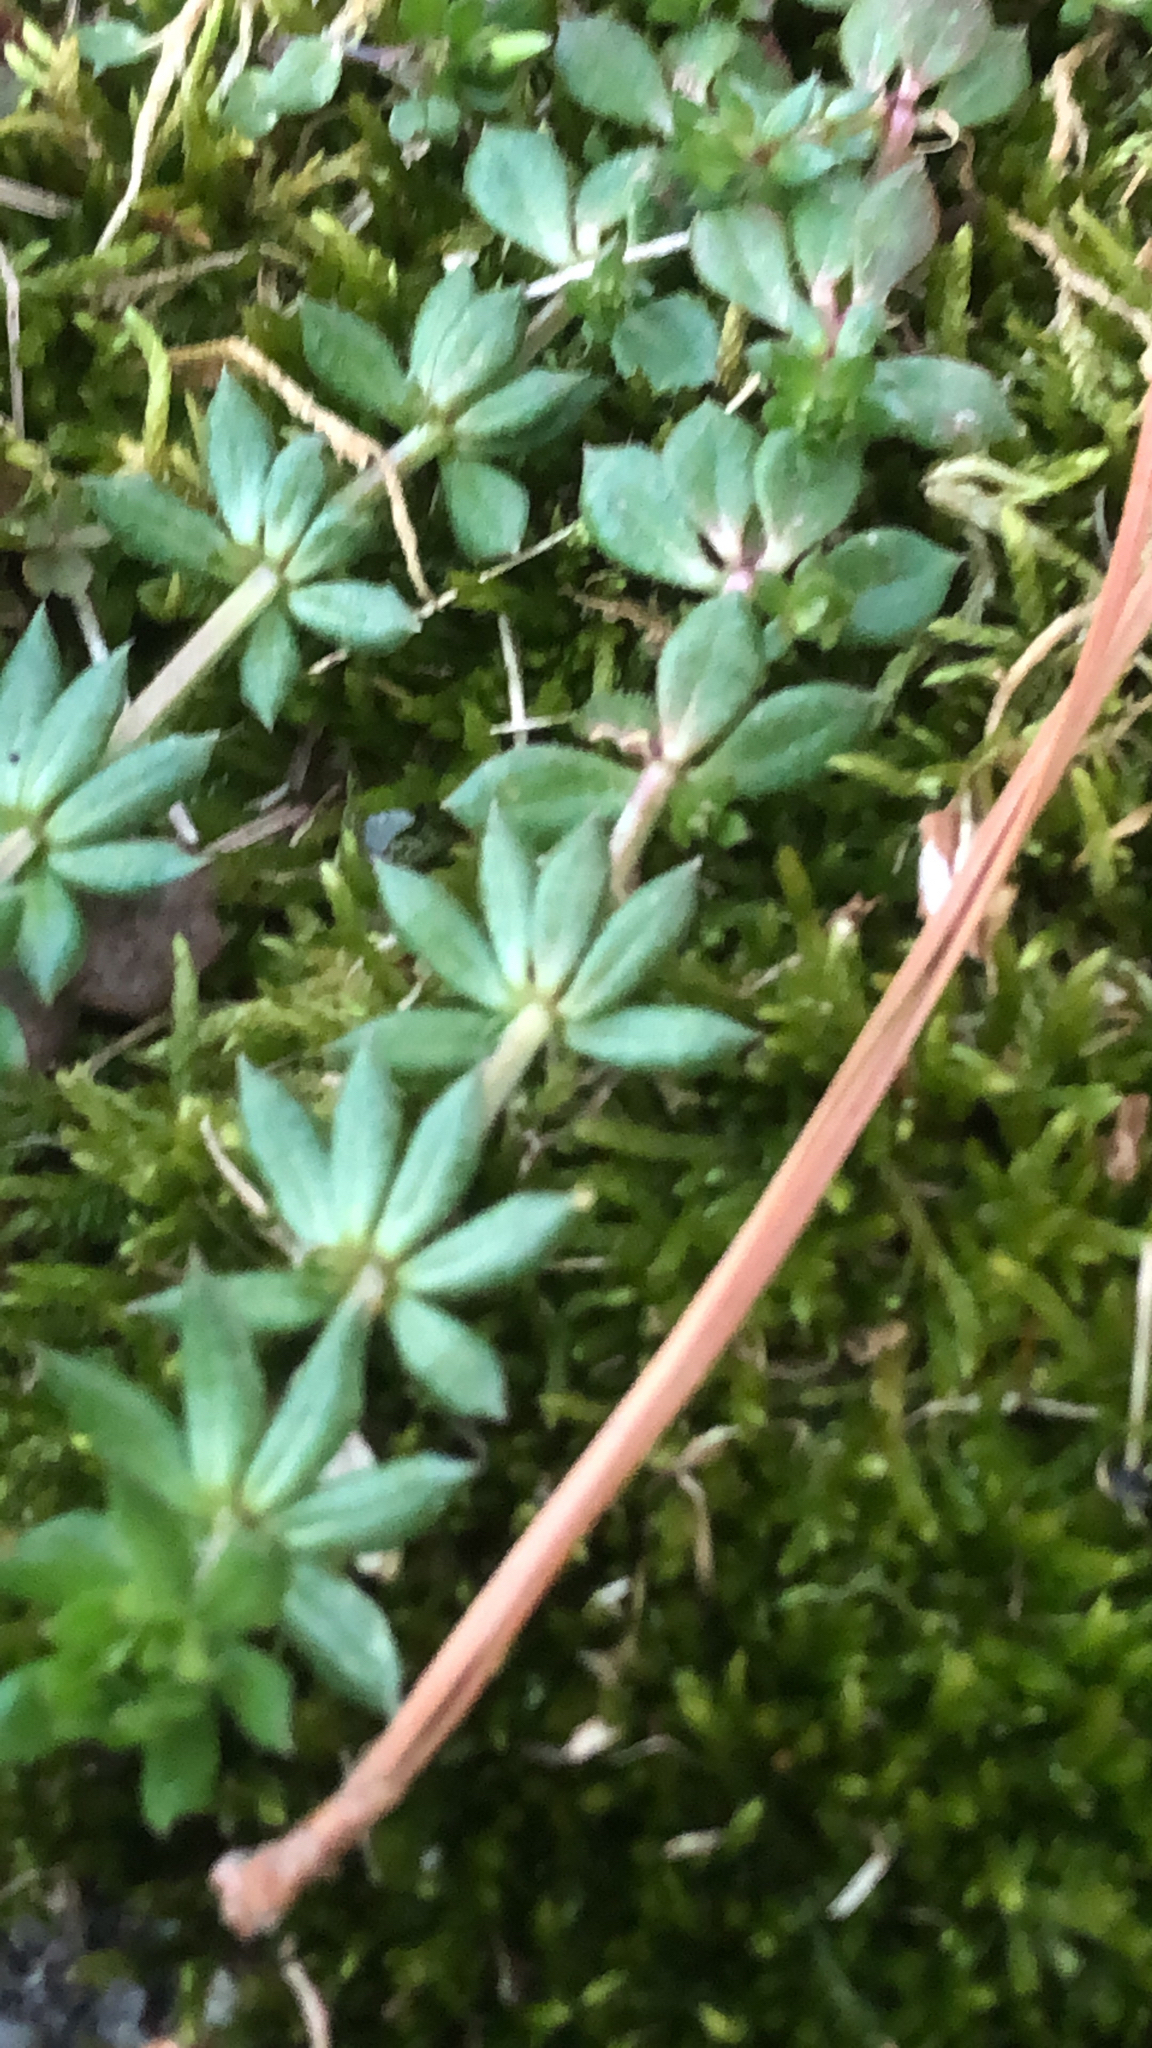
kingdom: Plantae
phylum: Tracheophyta
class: Magnoliopsida
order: Gentianales
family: Rubiaceae
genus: Sherardia
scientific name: Sherardia arvensis
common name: Field madder
